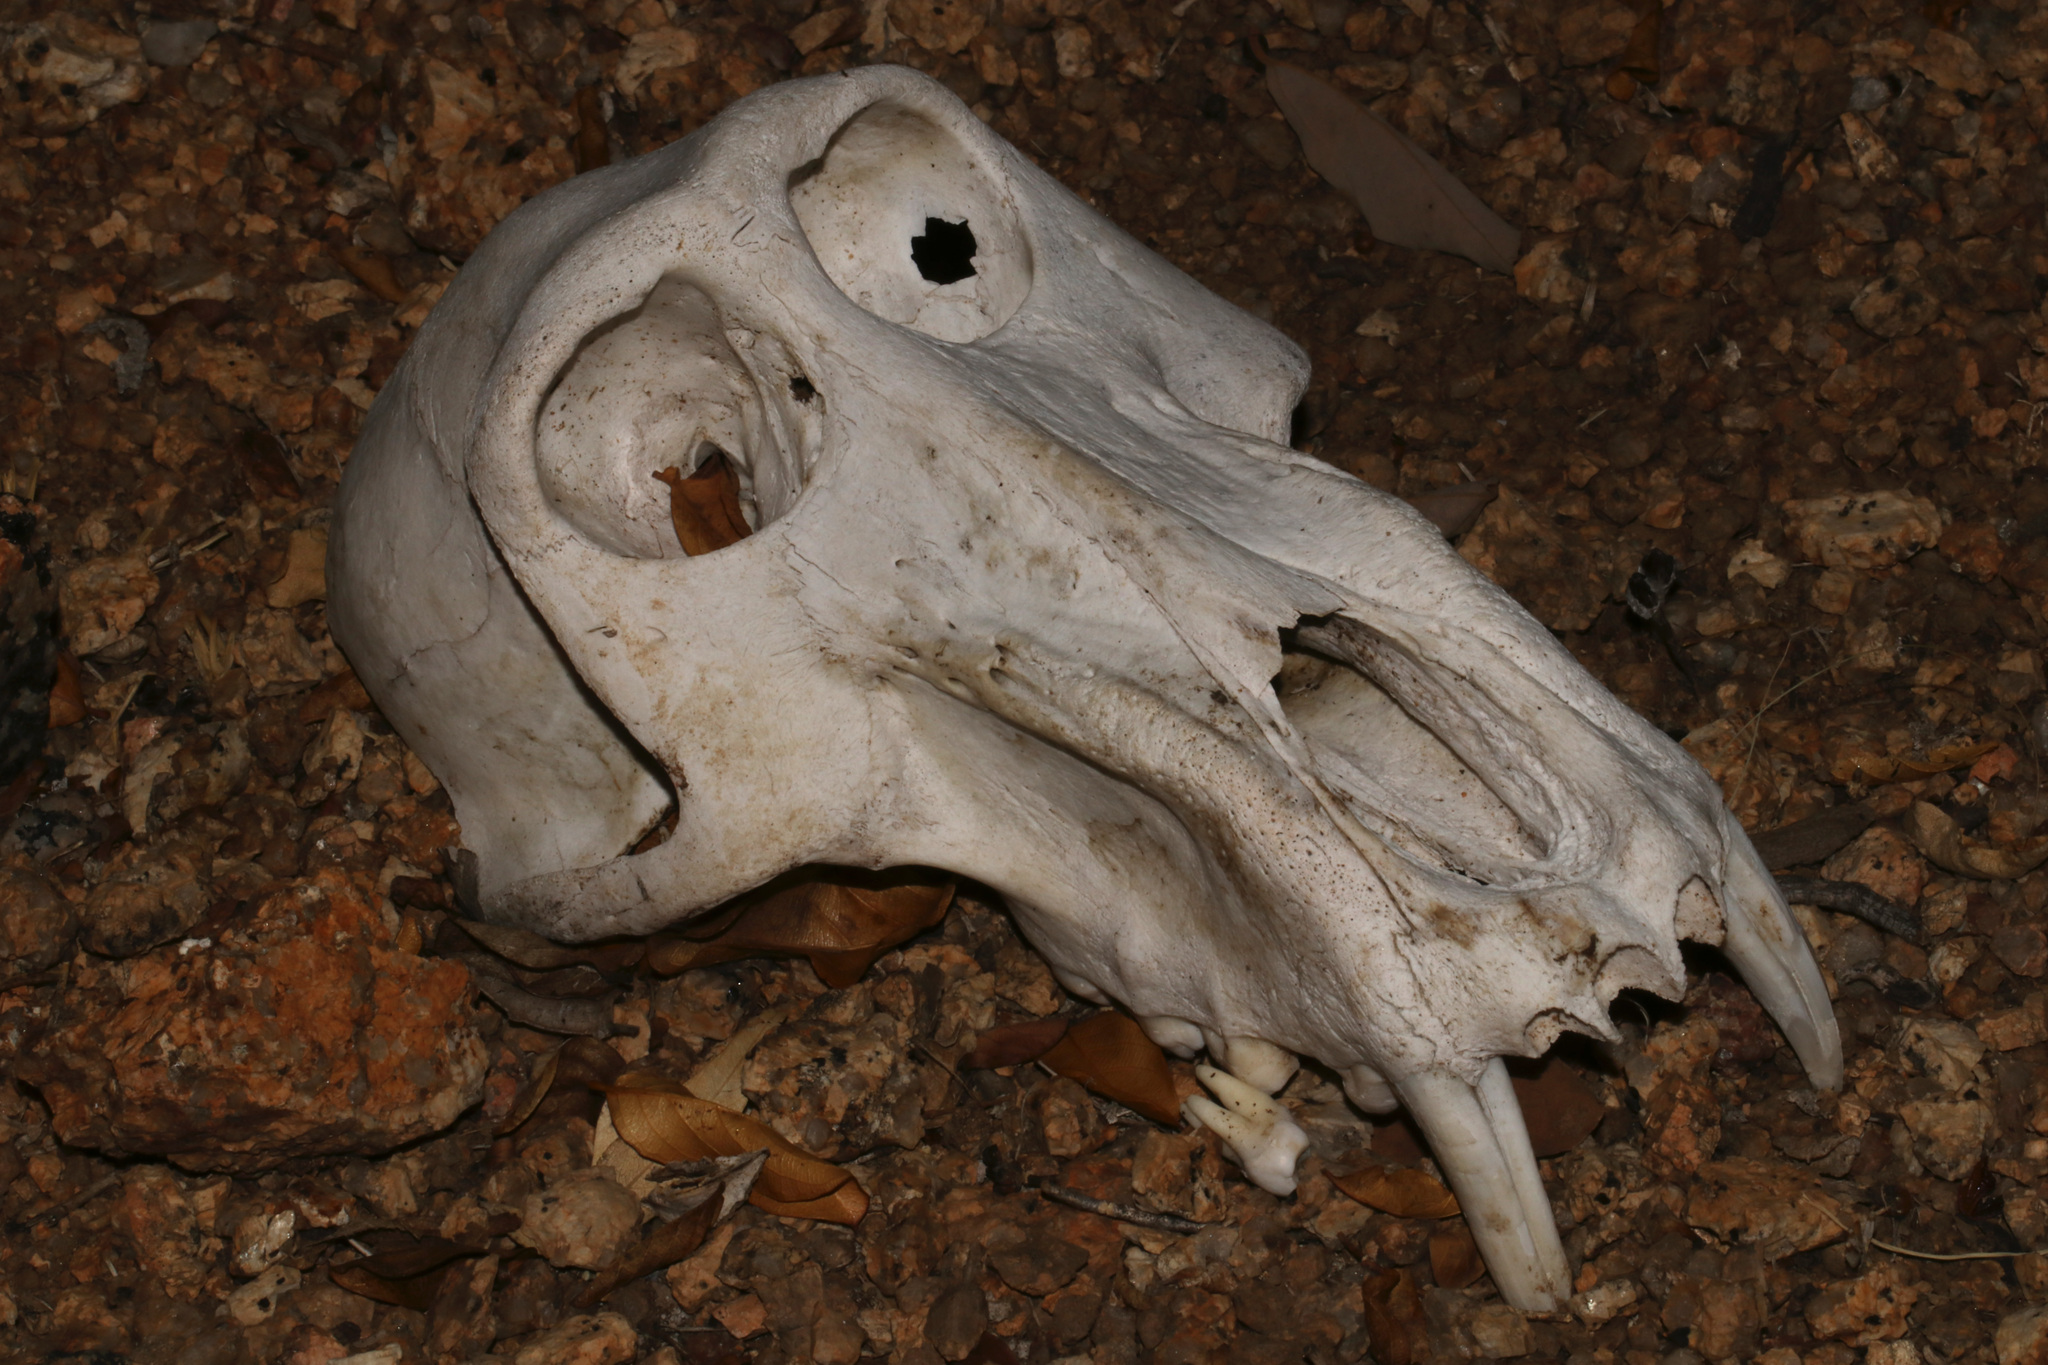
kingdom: Animalia
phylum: Chordata
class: Mammalia
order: Primates
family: Cercopithecidae
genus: Papio
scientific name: Papio ursinus
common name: Chacma baboon
